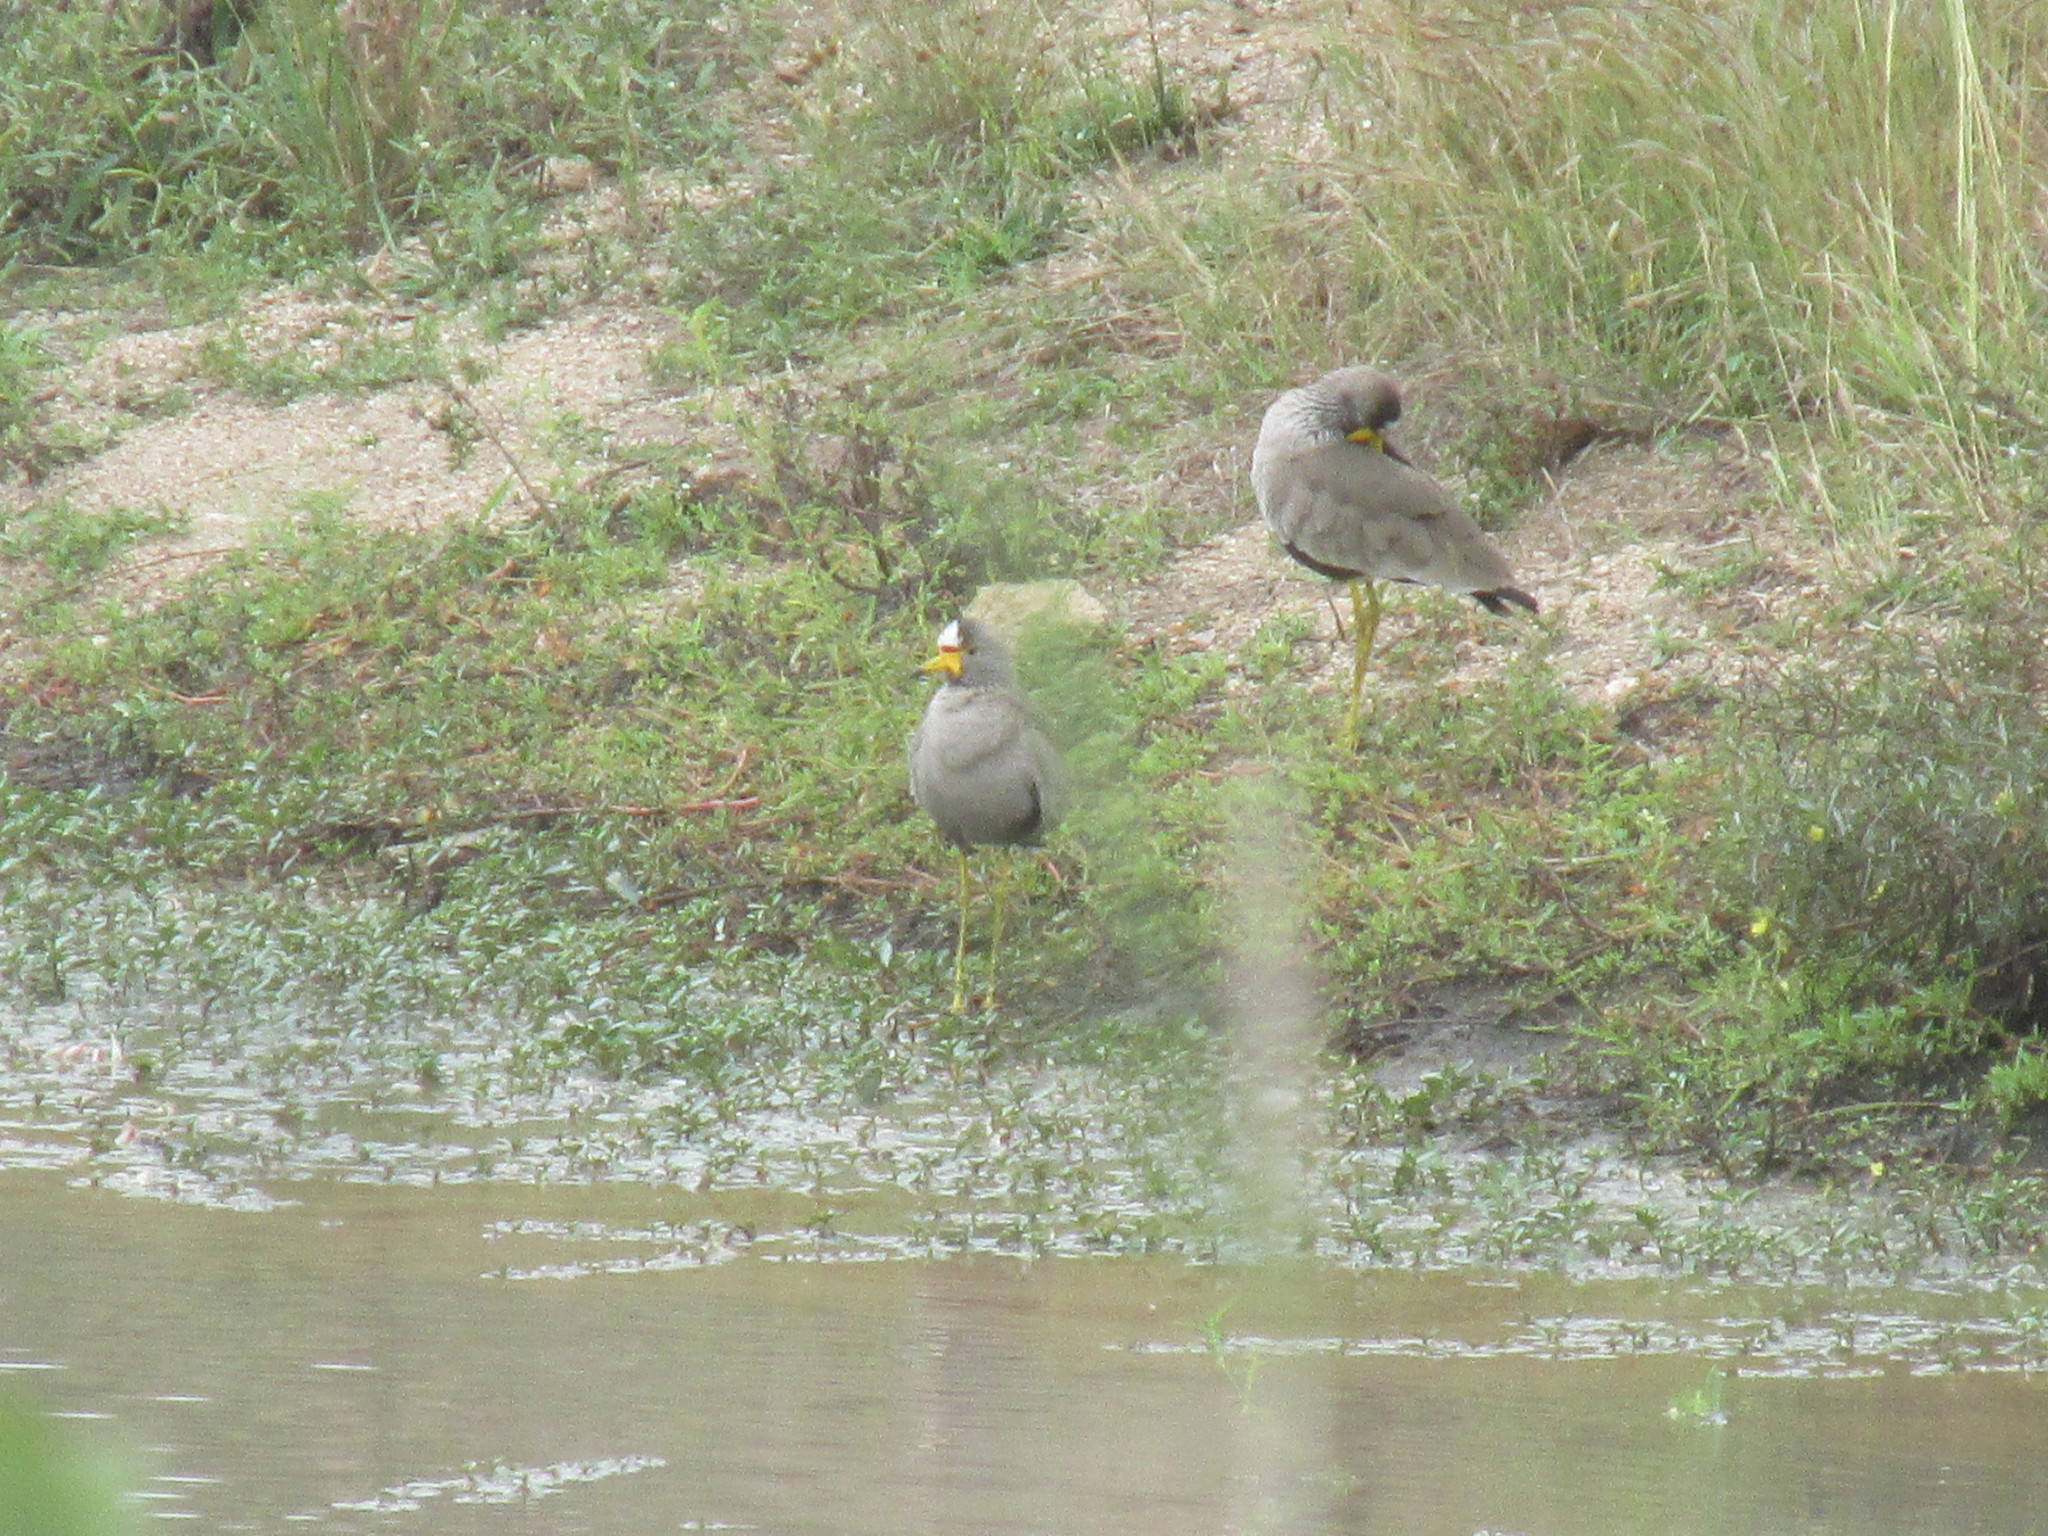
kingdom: Animalia
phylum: Chordata
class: Aves
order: Charadriiformes
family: Charadriidae
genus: Vanellus
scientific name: Vanellus senegallus
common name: African wattled lapwing
